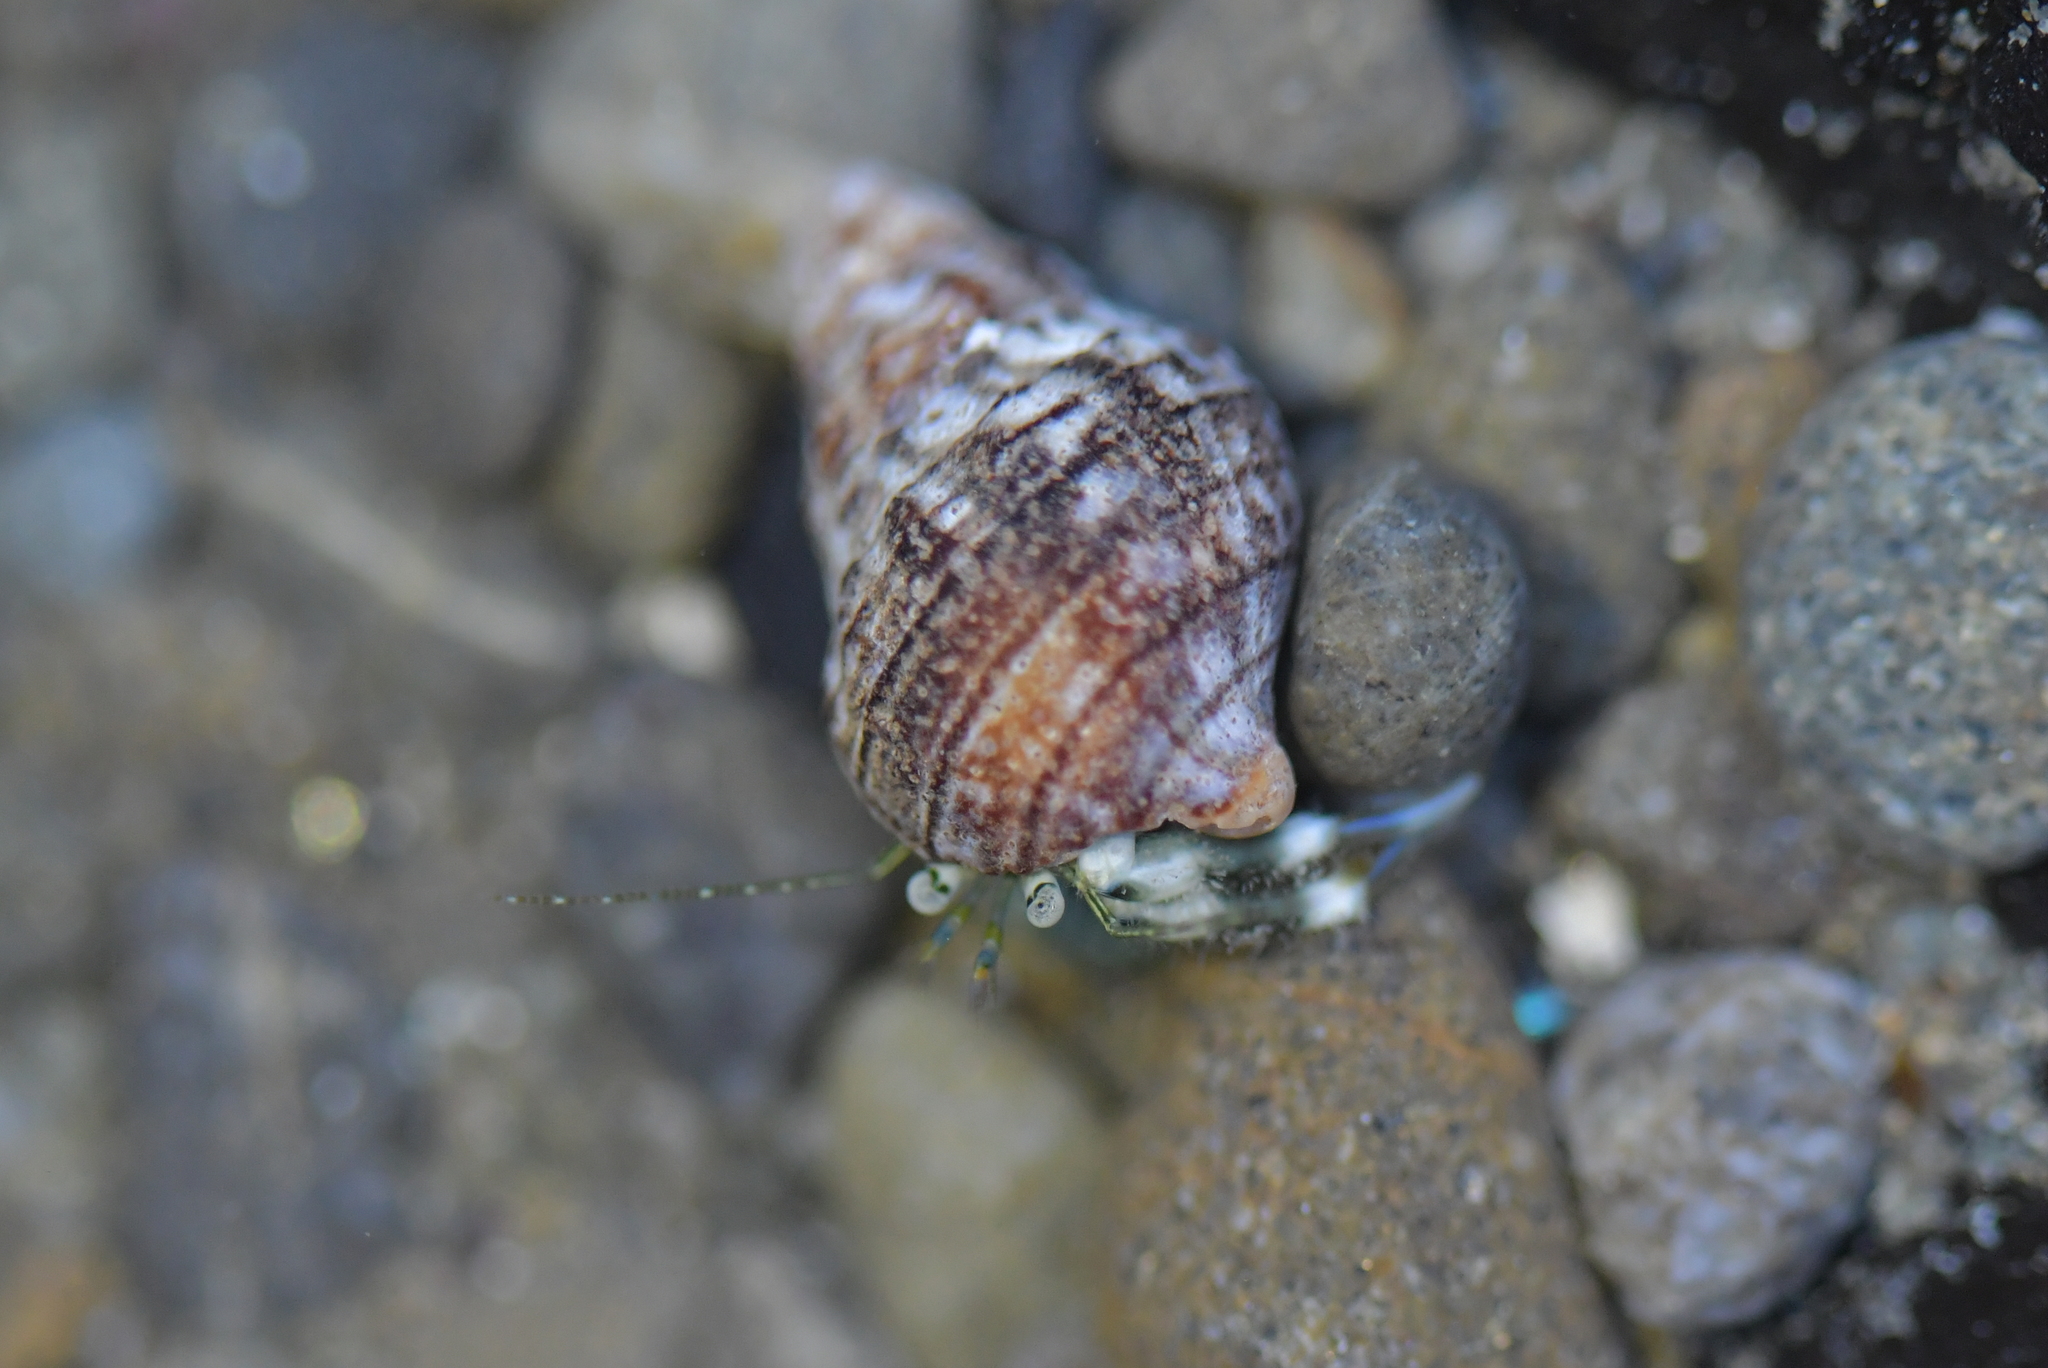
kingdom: Animalia
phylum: Arthropoda
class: Malacostraca
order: Decapoda
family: Paguridae
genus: Pagurus
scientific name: Pagurus novizealandiae
